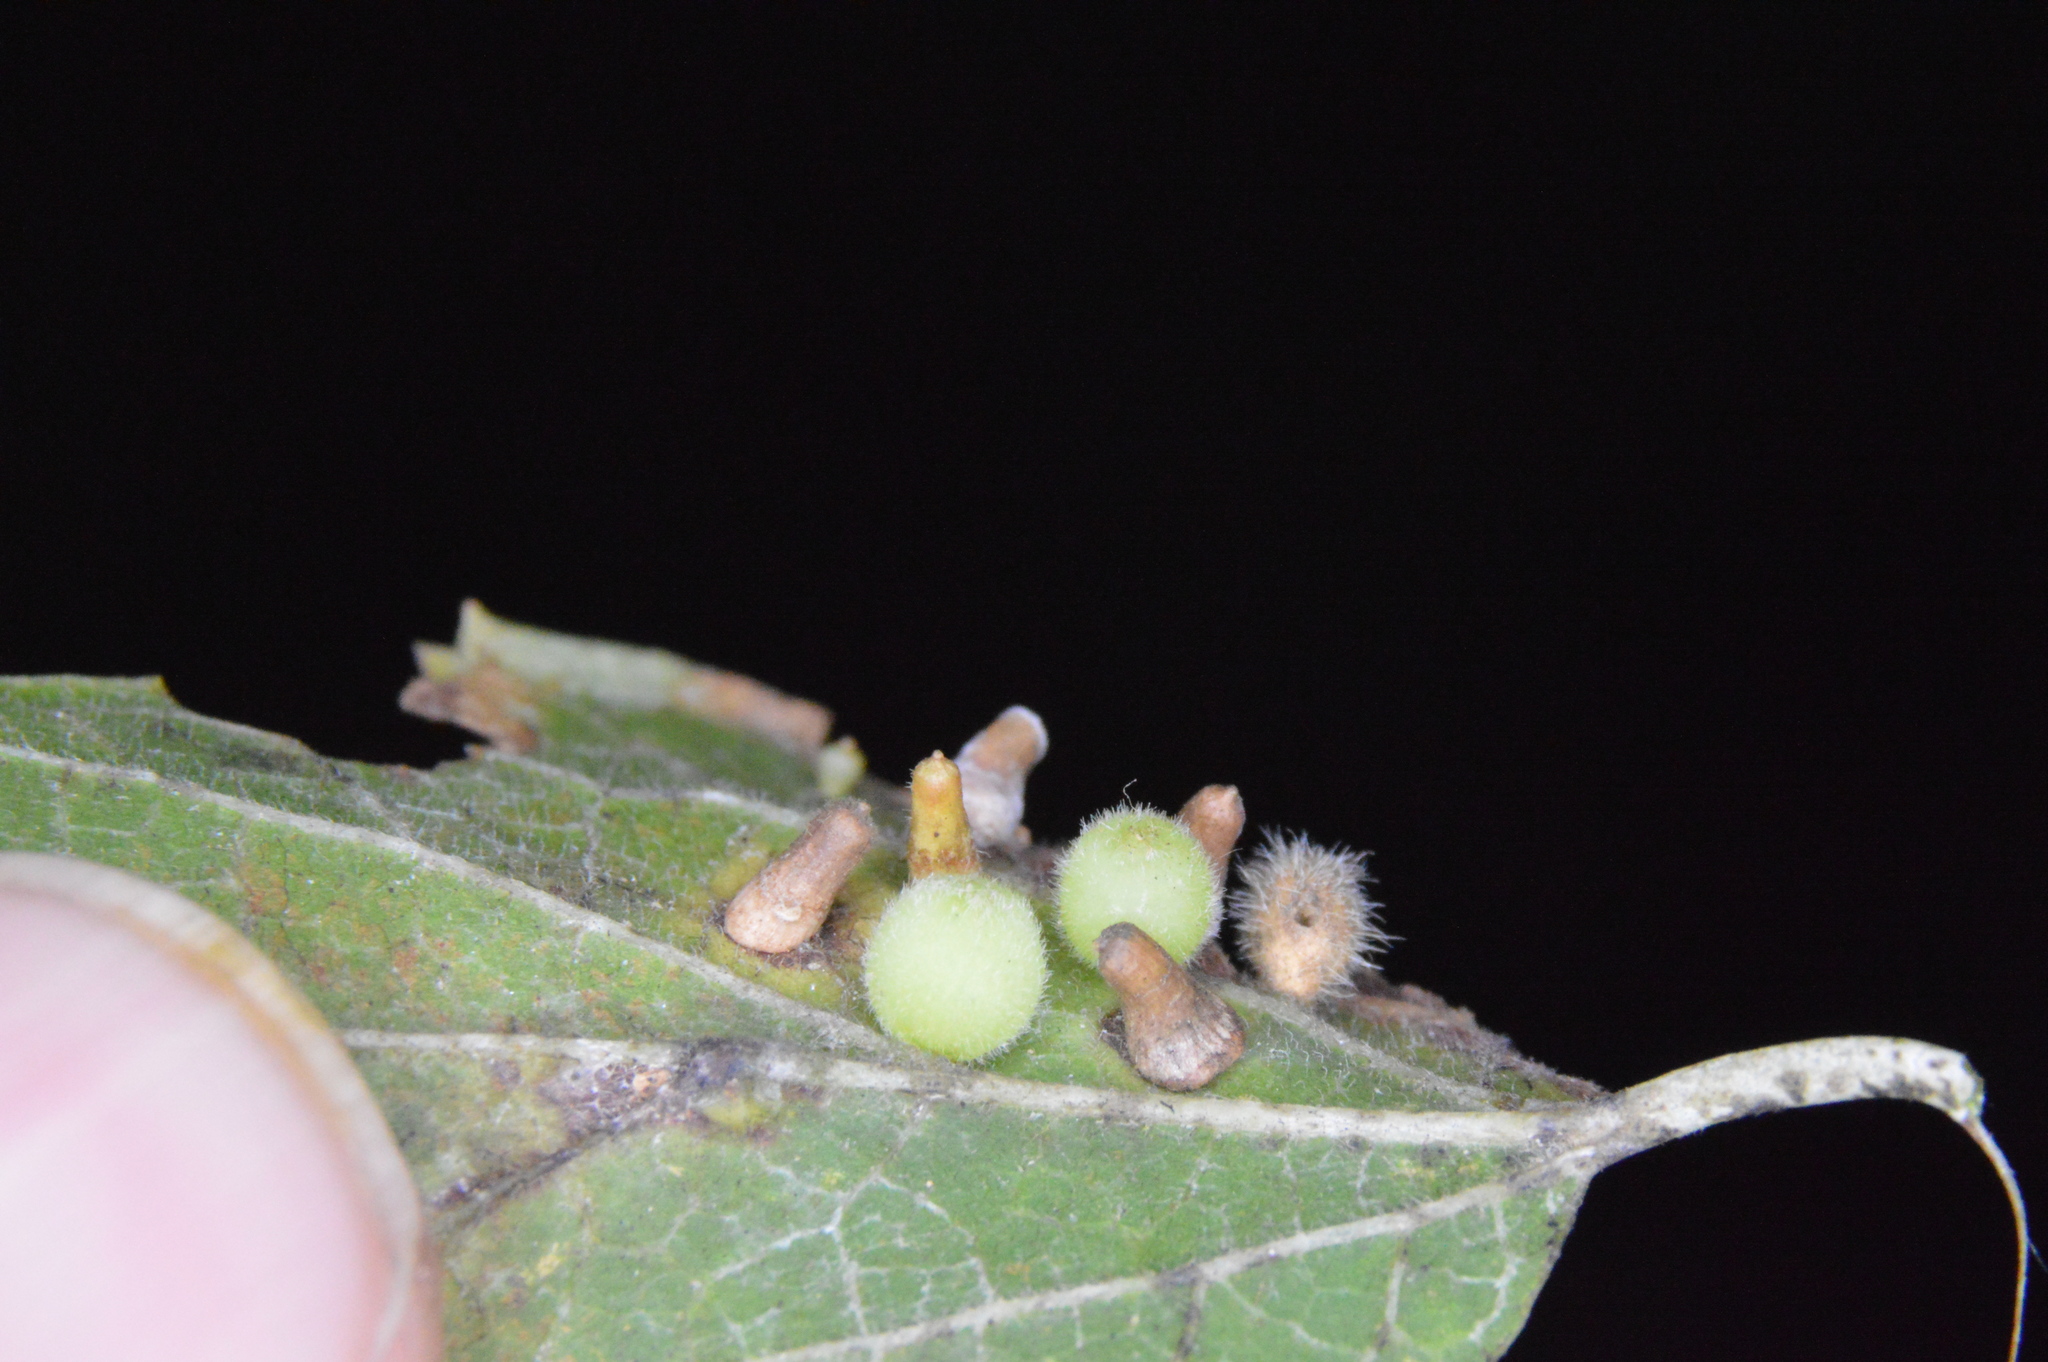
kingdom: Animalia
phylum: Arthropoda
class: Insecta
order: Diptera
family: Cecidomyiidae
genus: Celticecis
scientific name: Celticecis globosa
